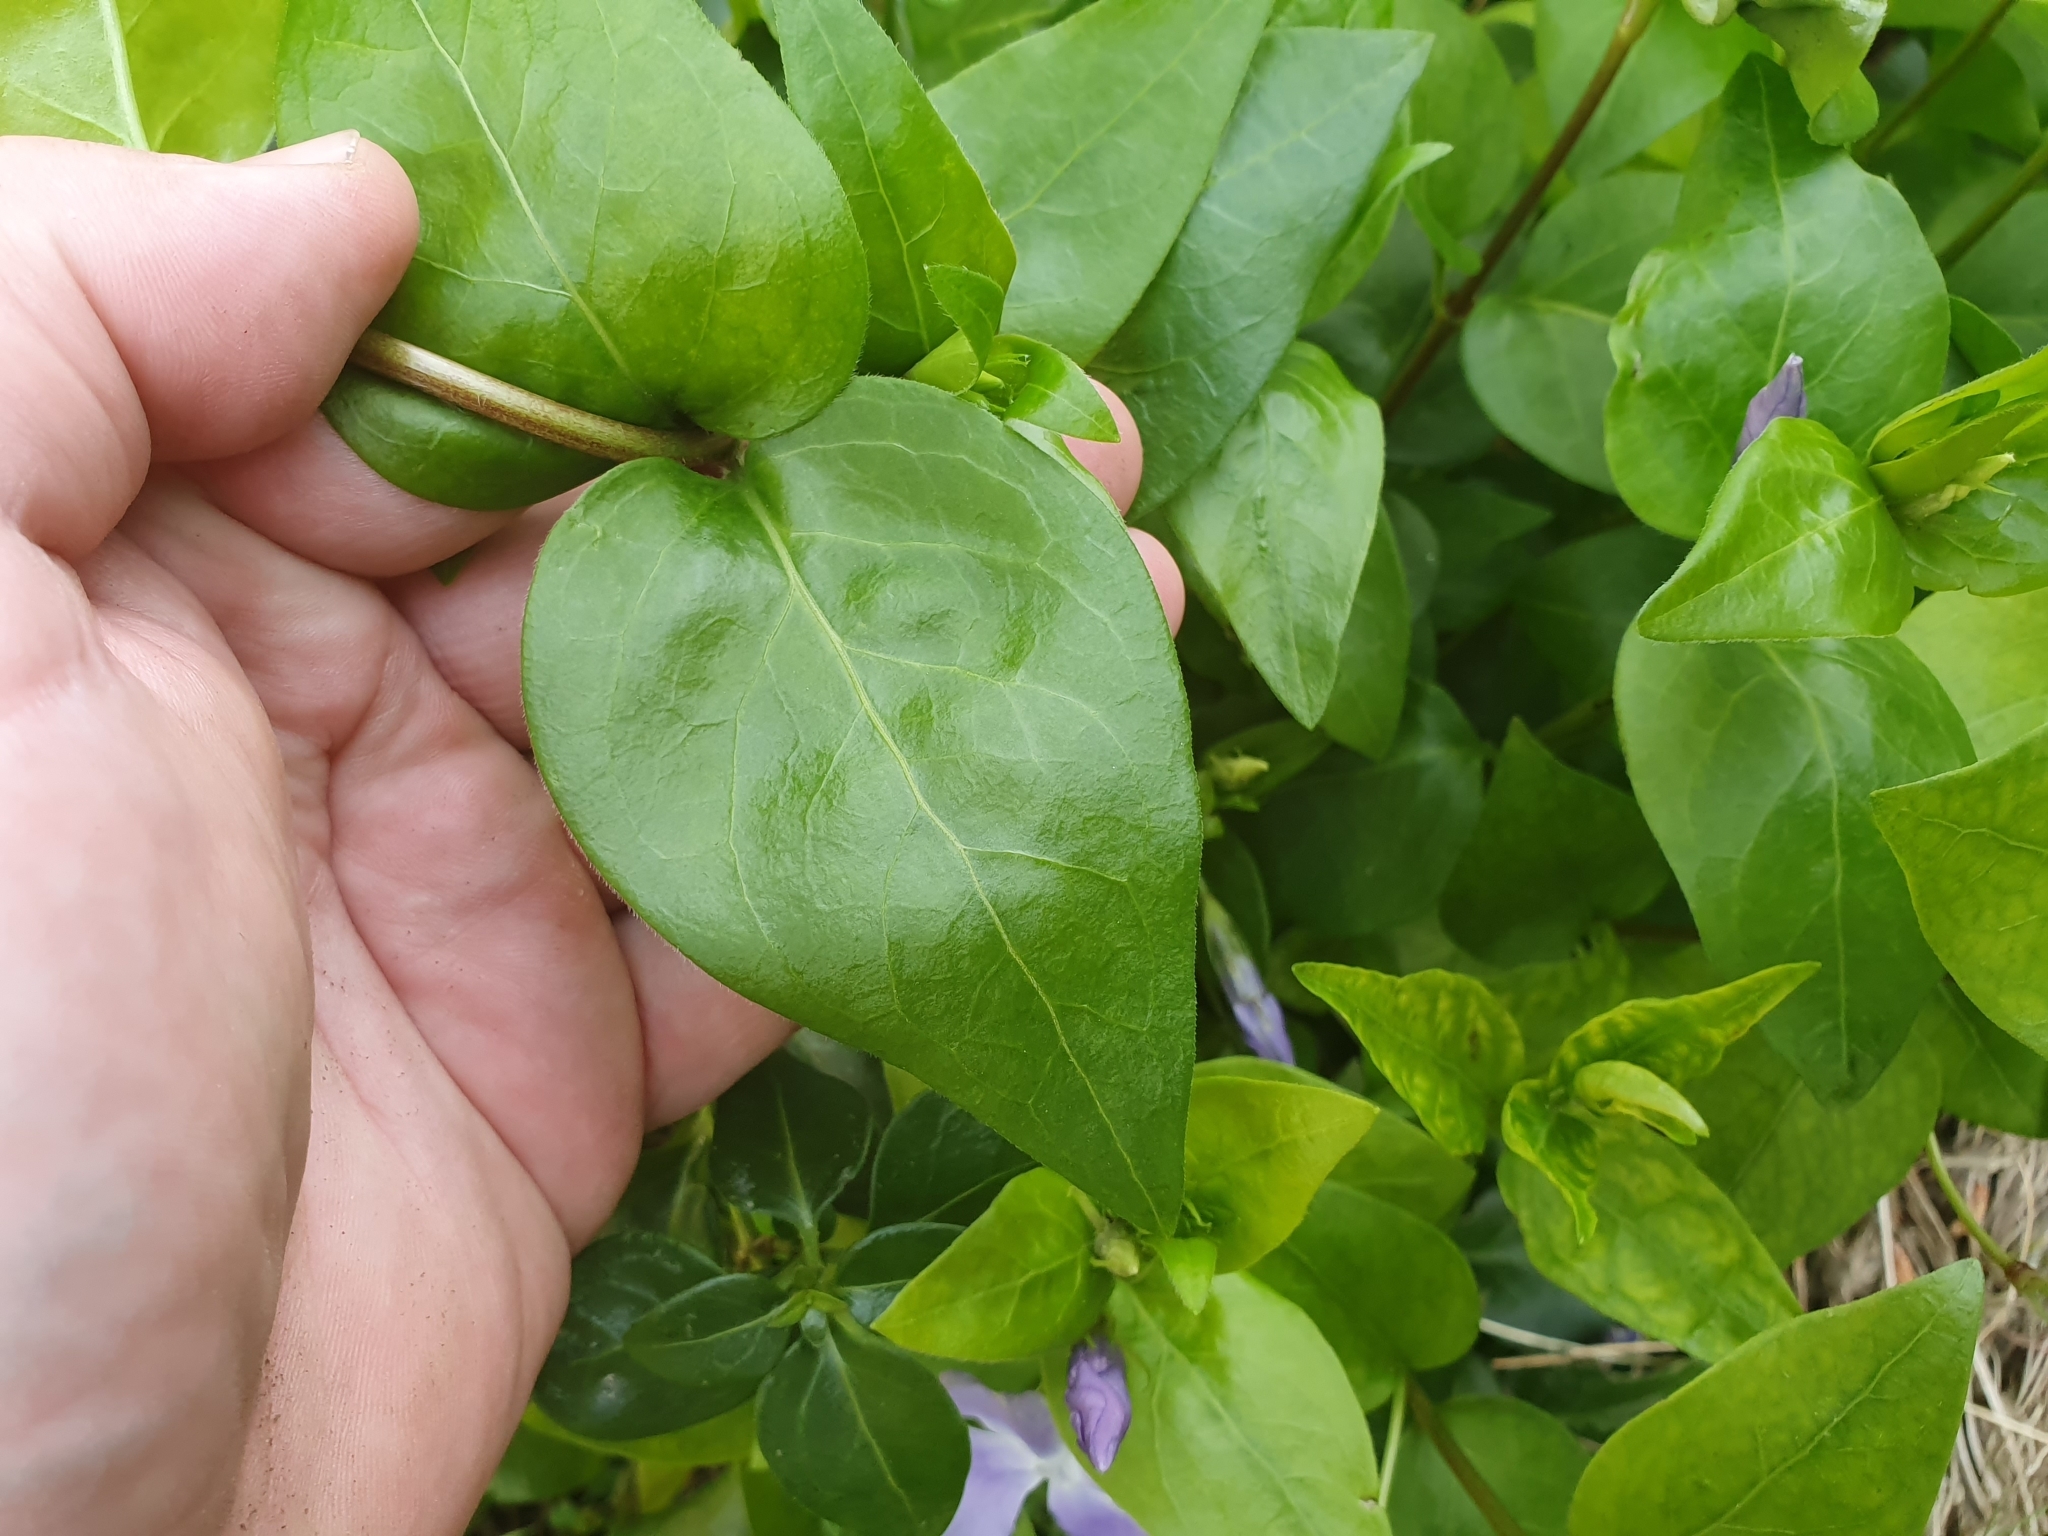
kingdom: Plantae
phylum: Tracheophyta
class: Magnoliopsida
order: Gentianales
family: Apocynaceae
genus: Vinca
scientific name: Vinca major
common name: Greater periwinkle
